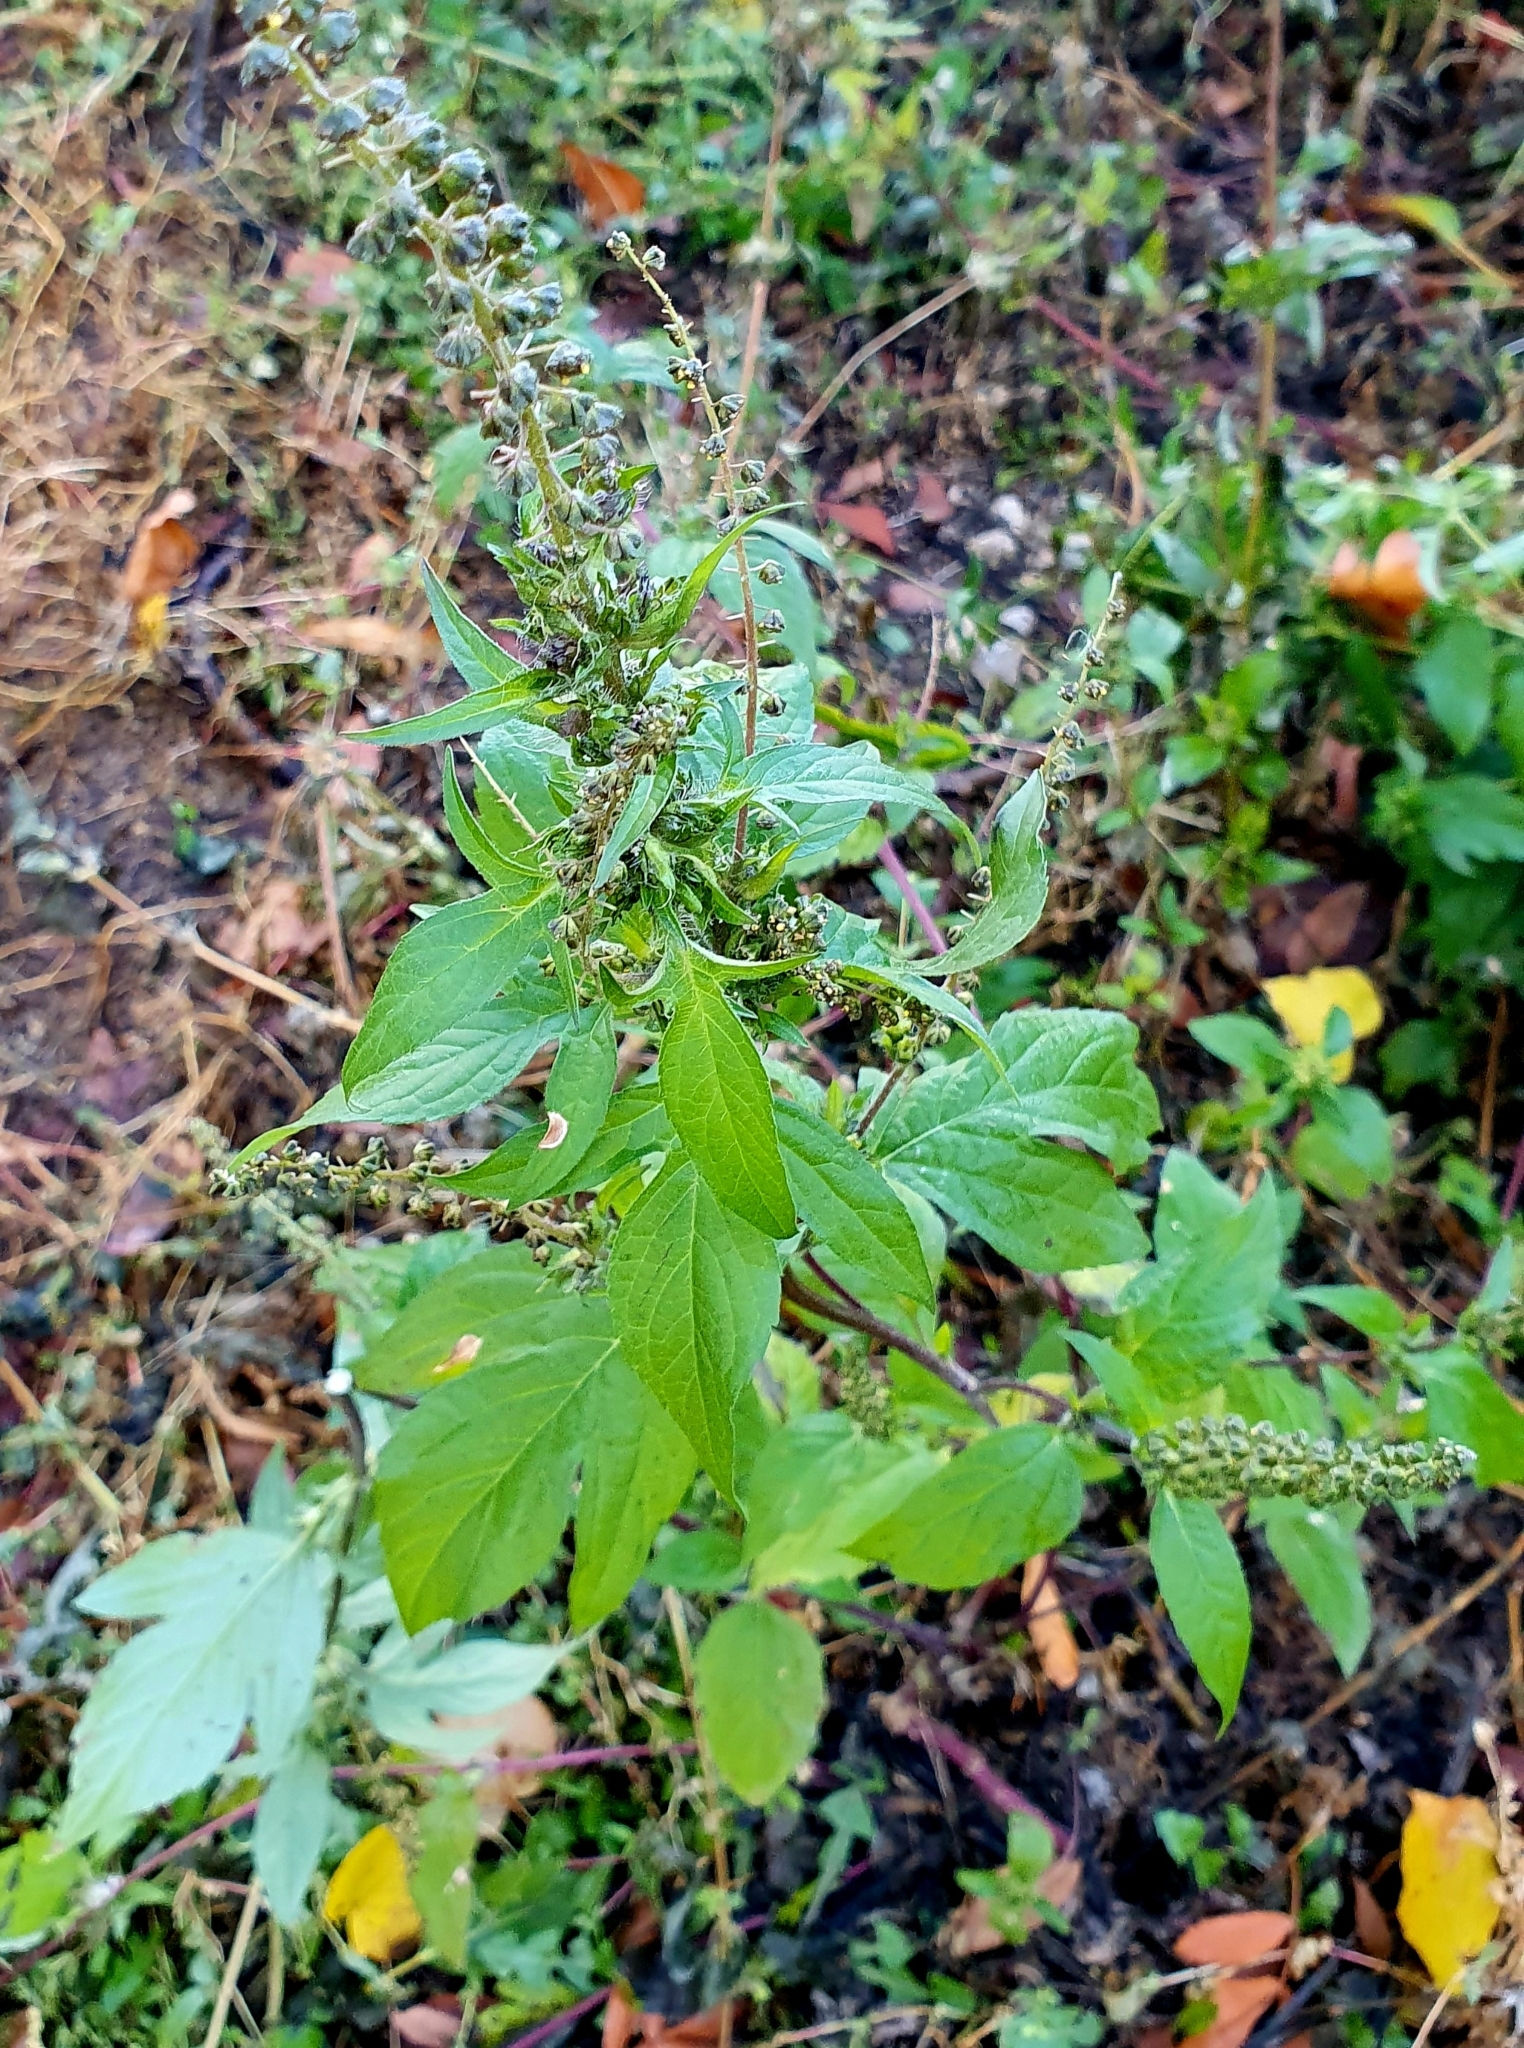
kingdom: Plantae
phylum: Tracheophyta
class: Magnoliopsida
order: Asterales
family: Asteraceae
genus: Ambrosia
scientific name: Ambrosia trifida
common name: Giant ragweed
